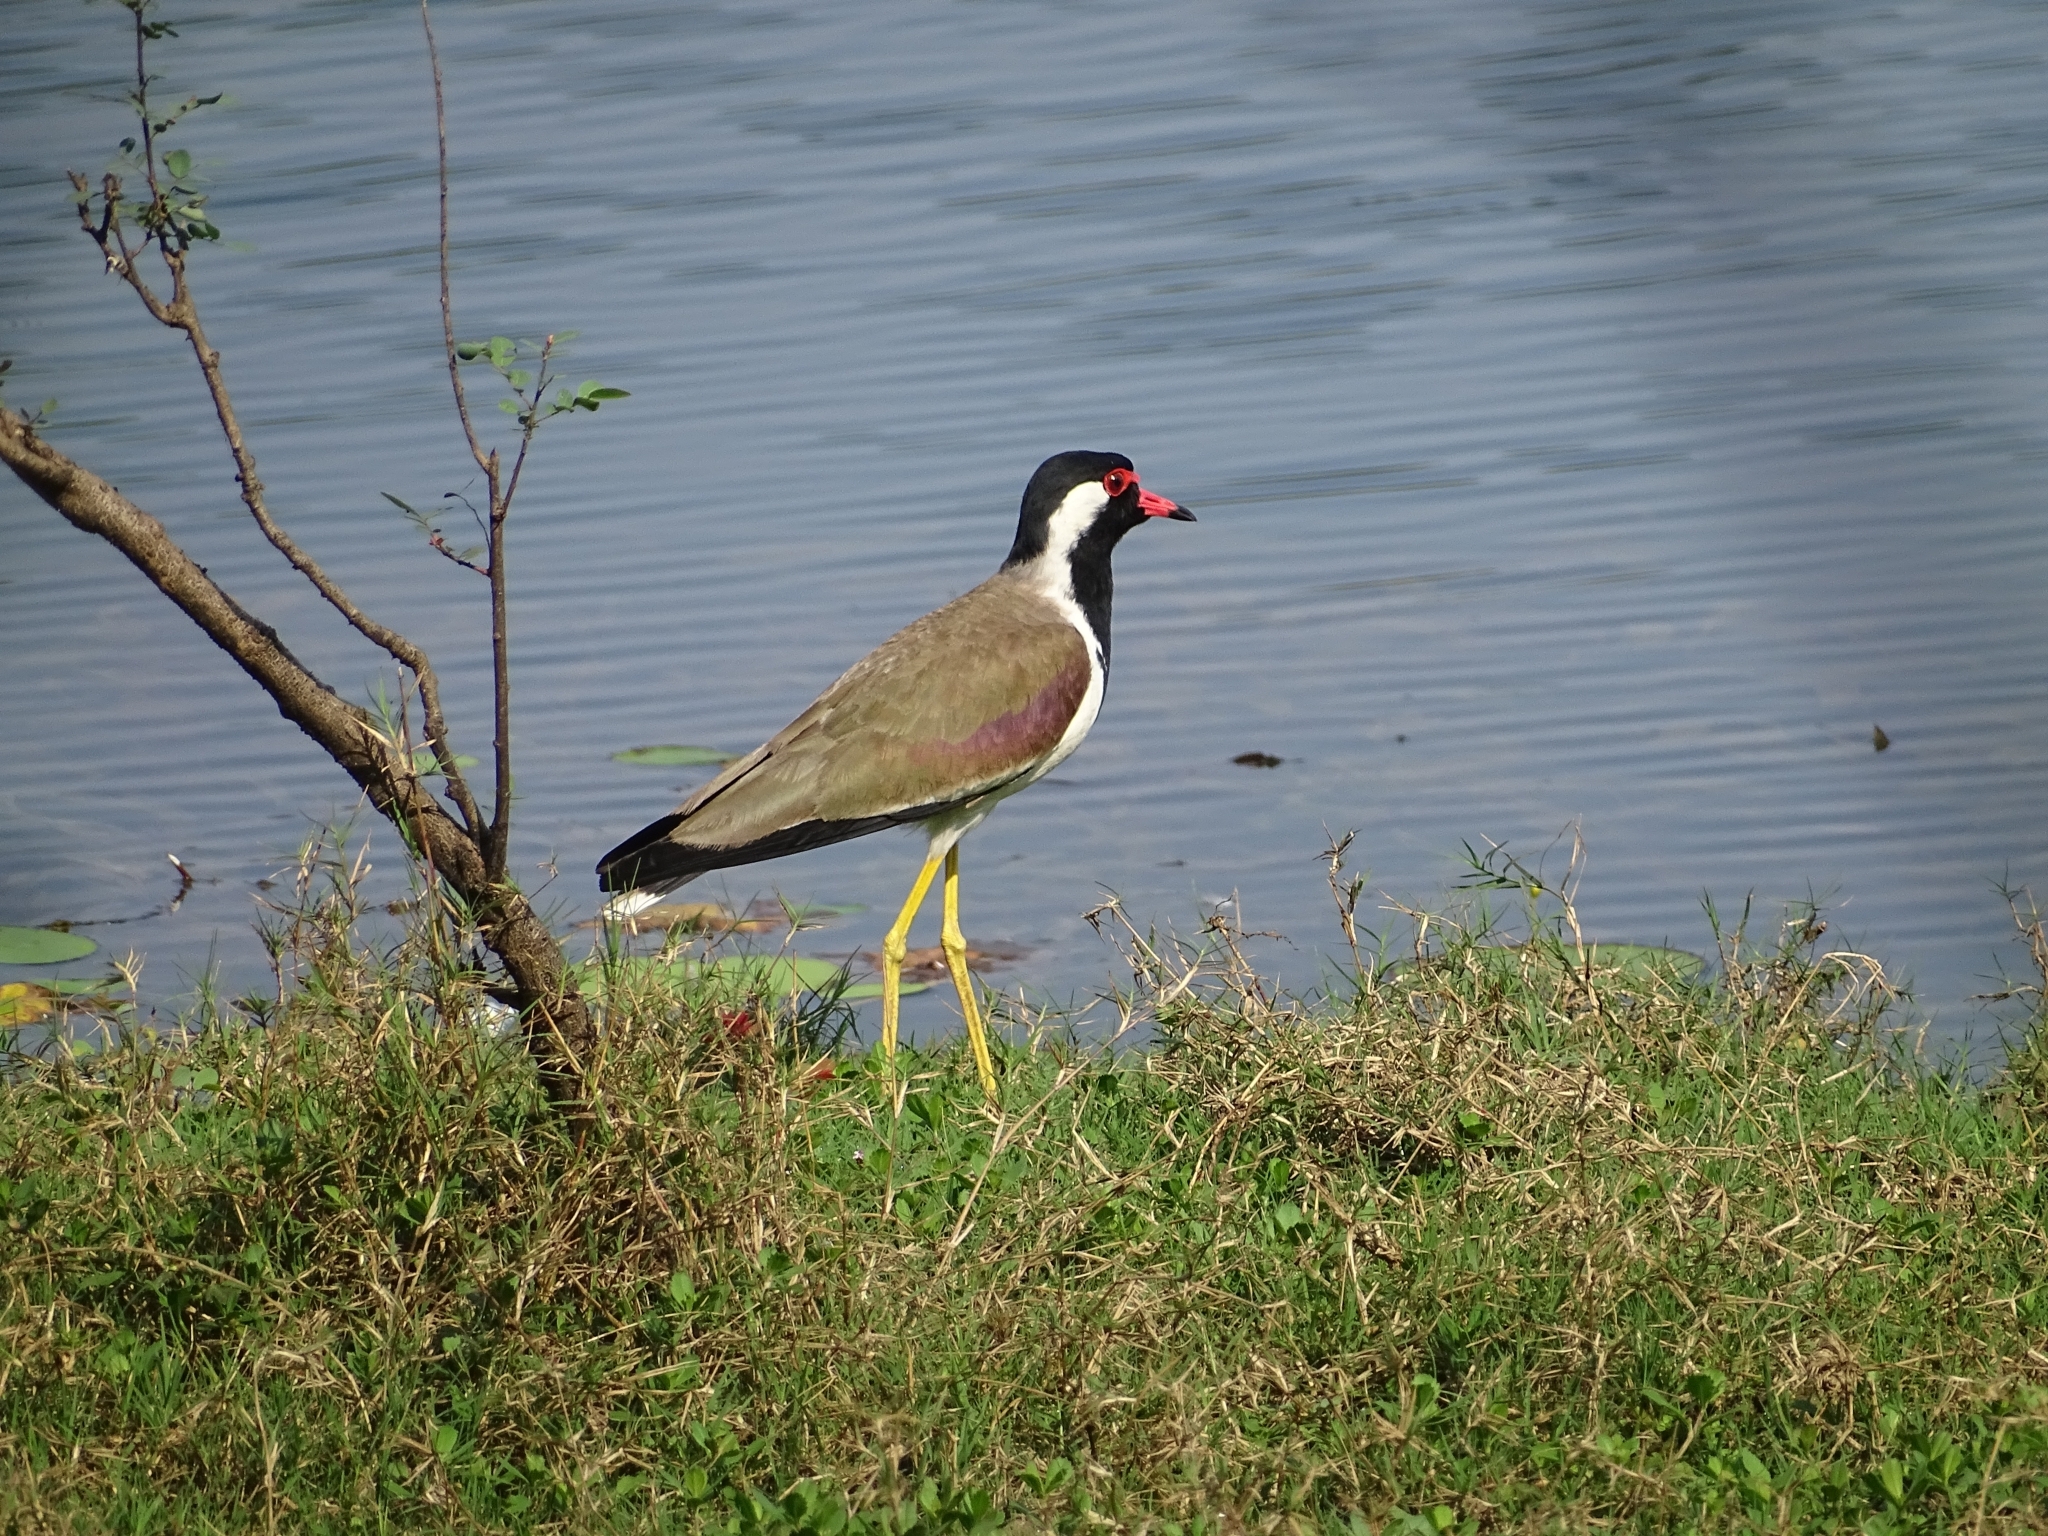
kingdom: Animalia
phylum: Chordata
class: Aves
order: Charadriiformes
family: Charadriidae
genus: Vanellus
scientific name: Vanellus indicus
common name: Red-wattled lapwing
